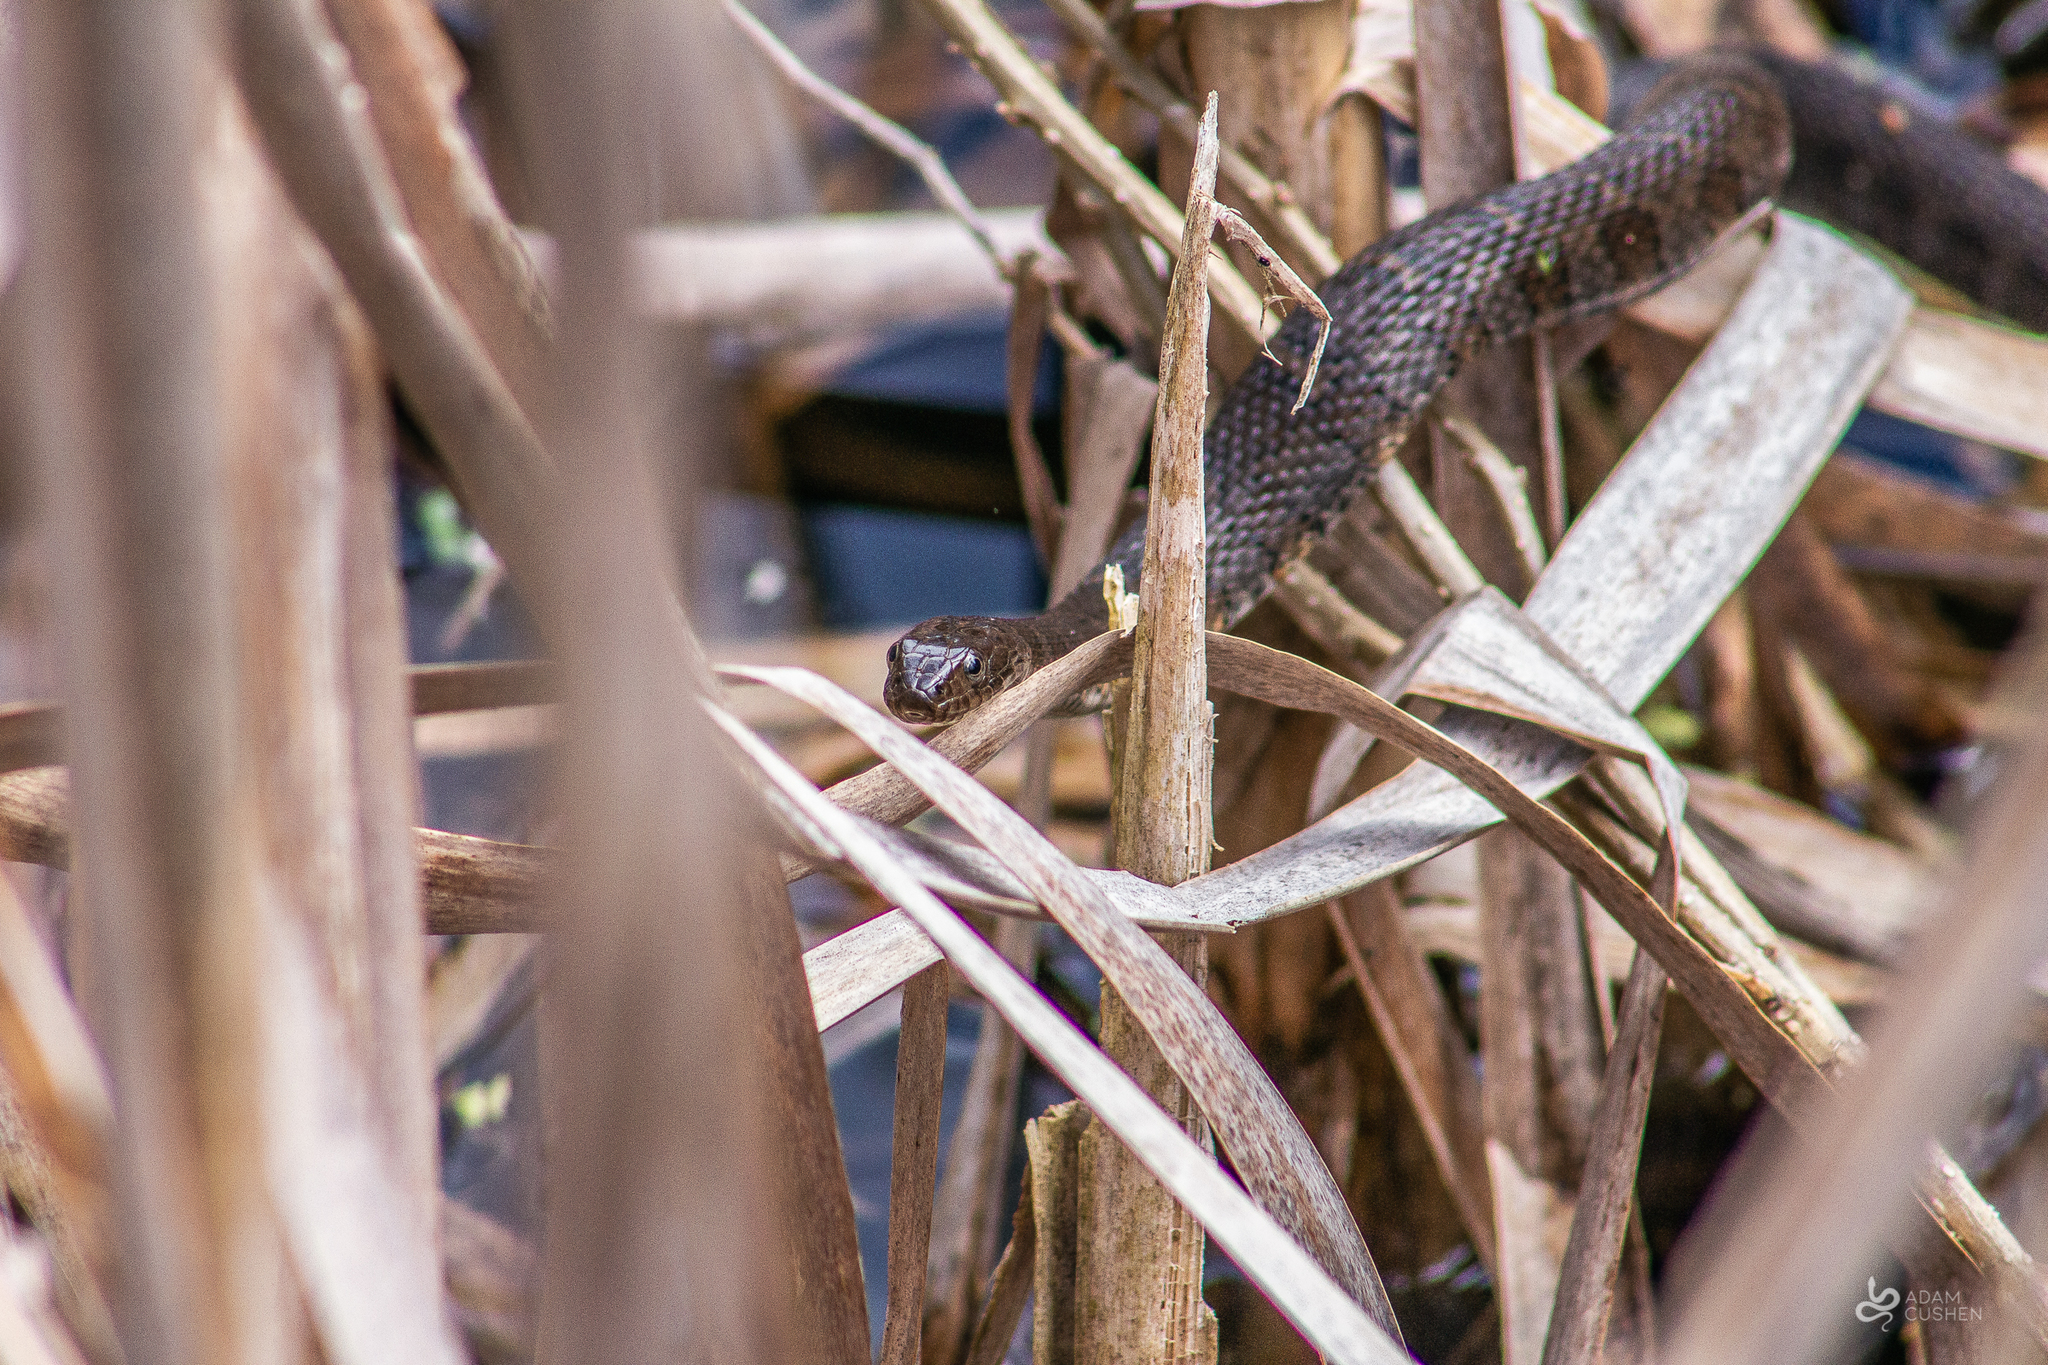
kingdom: Animalia
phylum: Chordata
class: Squamata
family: Colubridae
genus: Nerodia
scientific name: Nerodia sipedon
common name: Northern water snake
